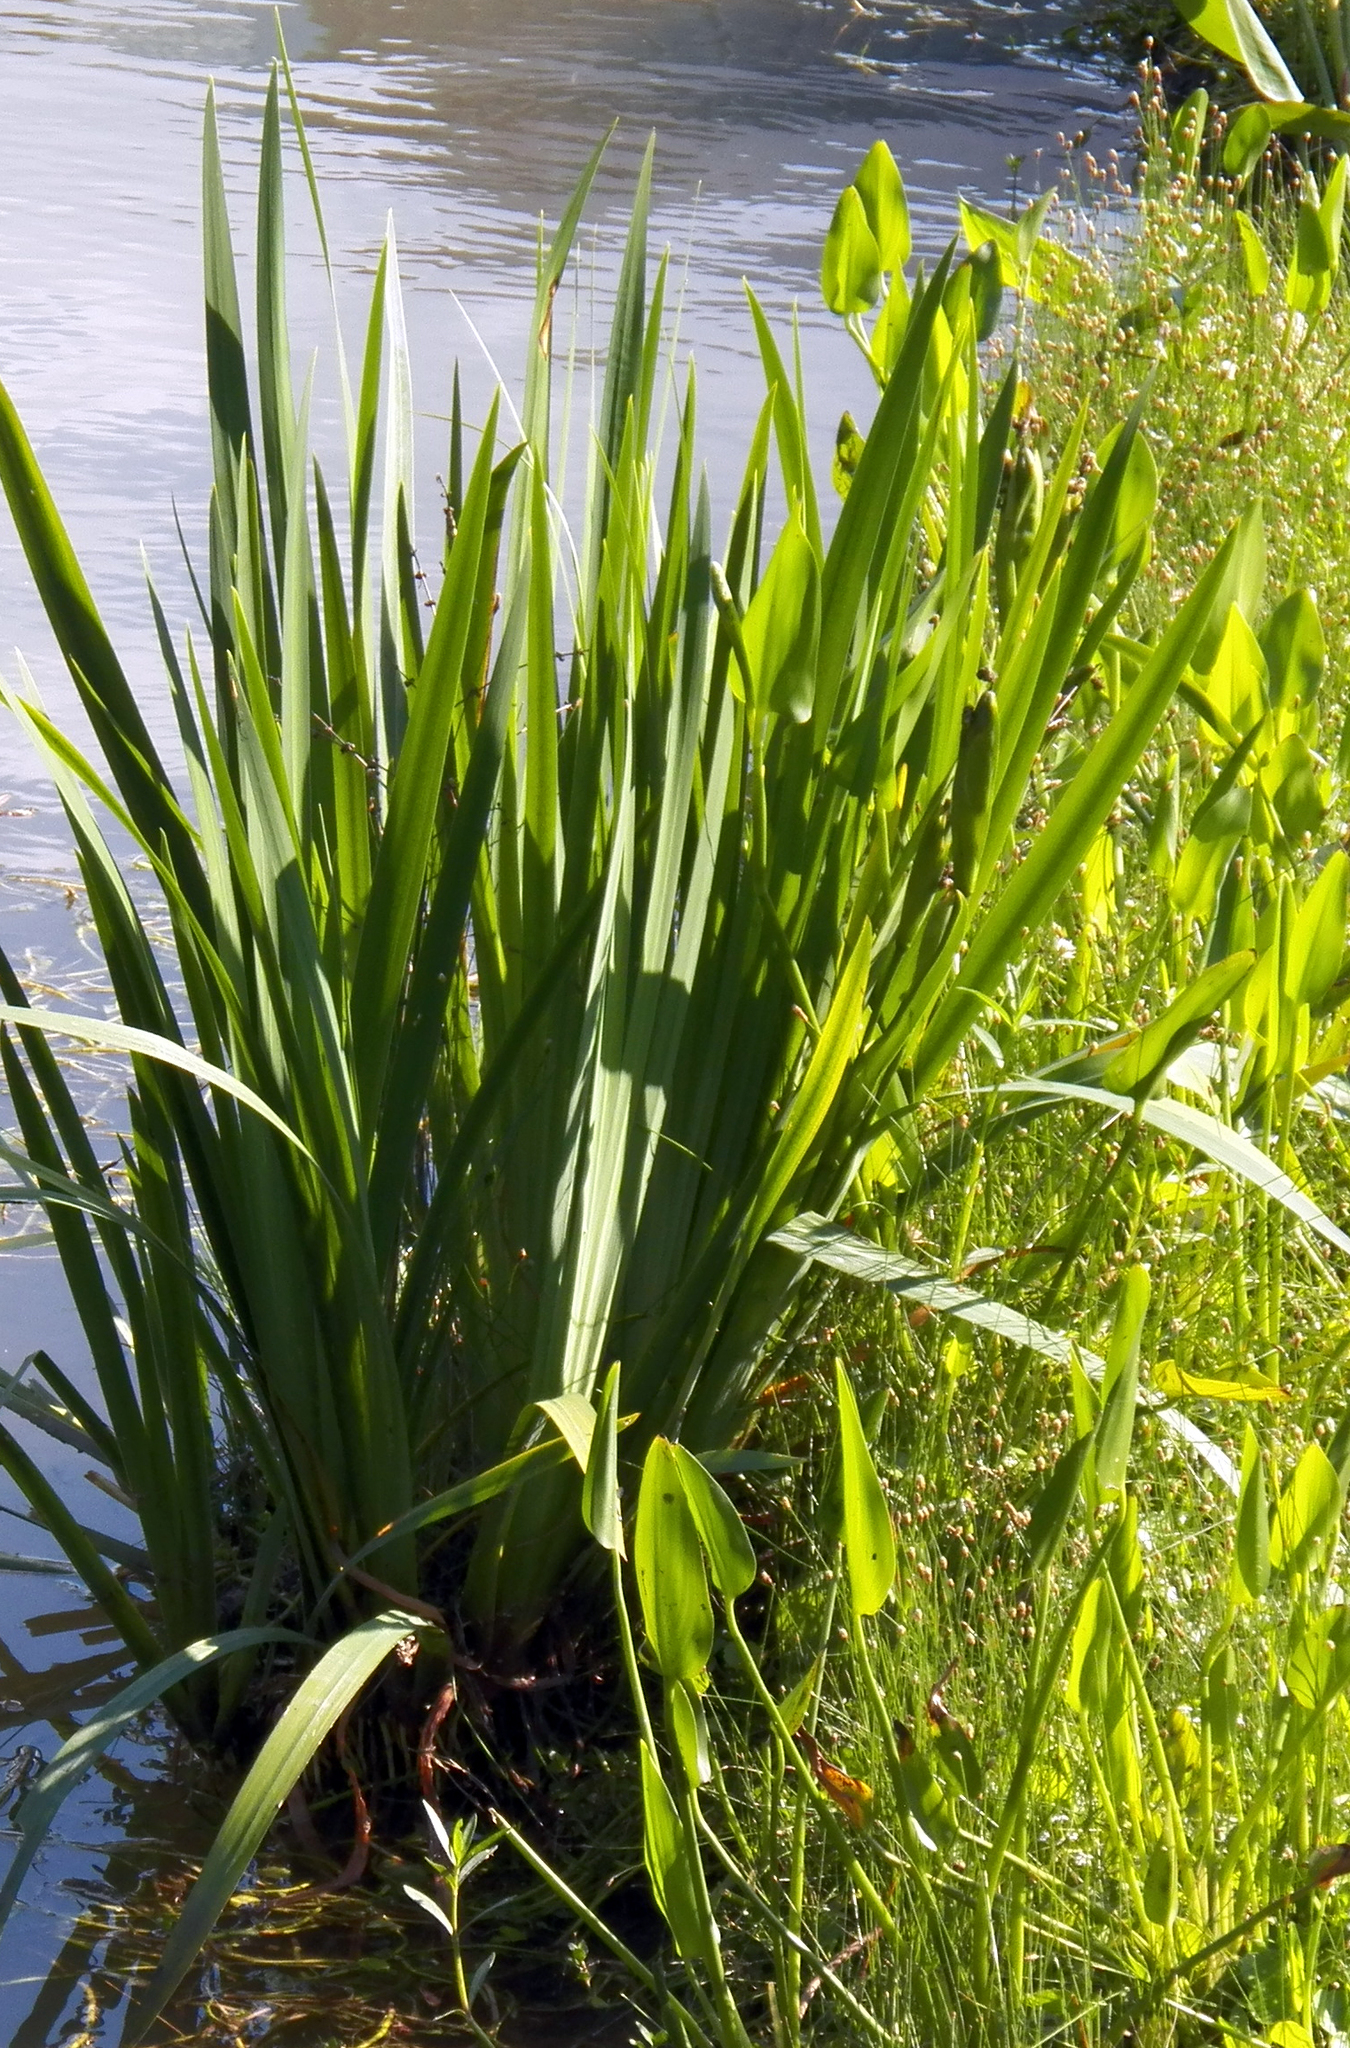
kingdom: Plantae
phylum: Tracheophyta
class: Liliopsida
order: Asparagales
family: Iridaceae
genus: Iris
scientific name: Iris pseudacorus
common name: Yellow flag
